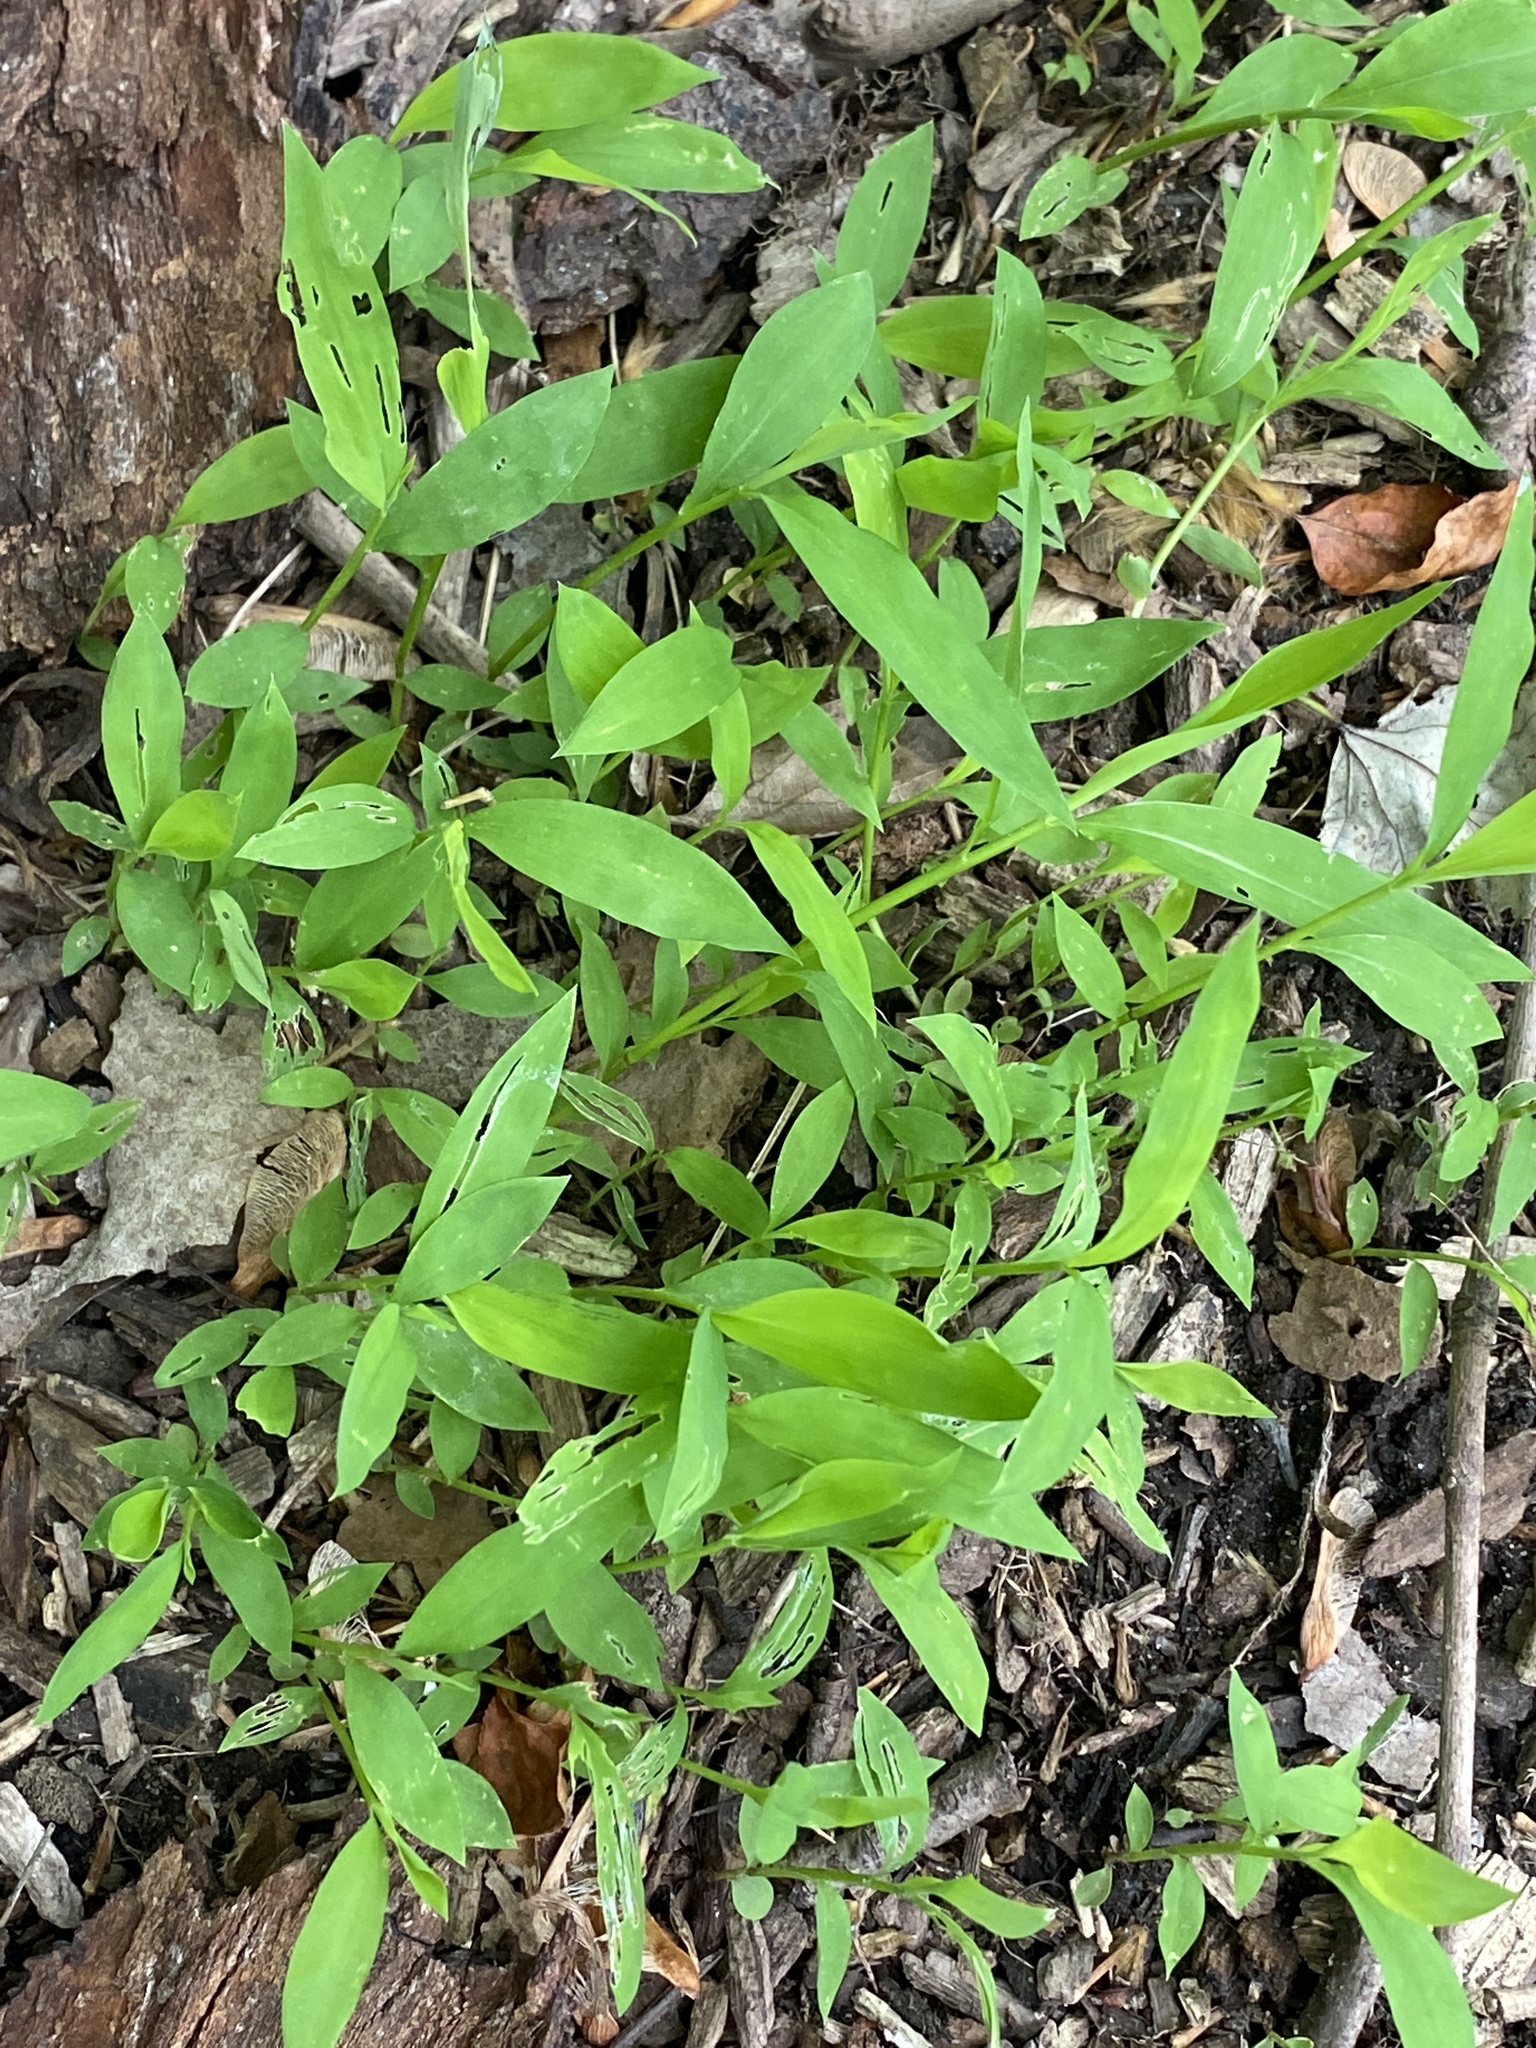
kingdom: Plantae
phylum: Tracheophyta
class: Liliopsida
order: Poales
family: Poaceae
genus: Microstegium
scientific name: Microstegium vimineum
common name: Japanese stiltgrass
